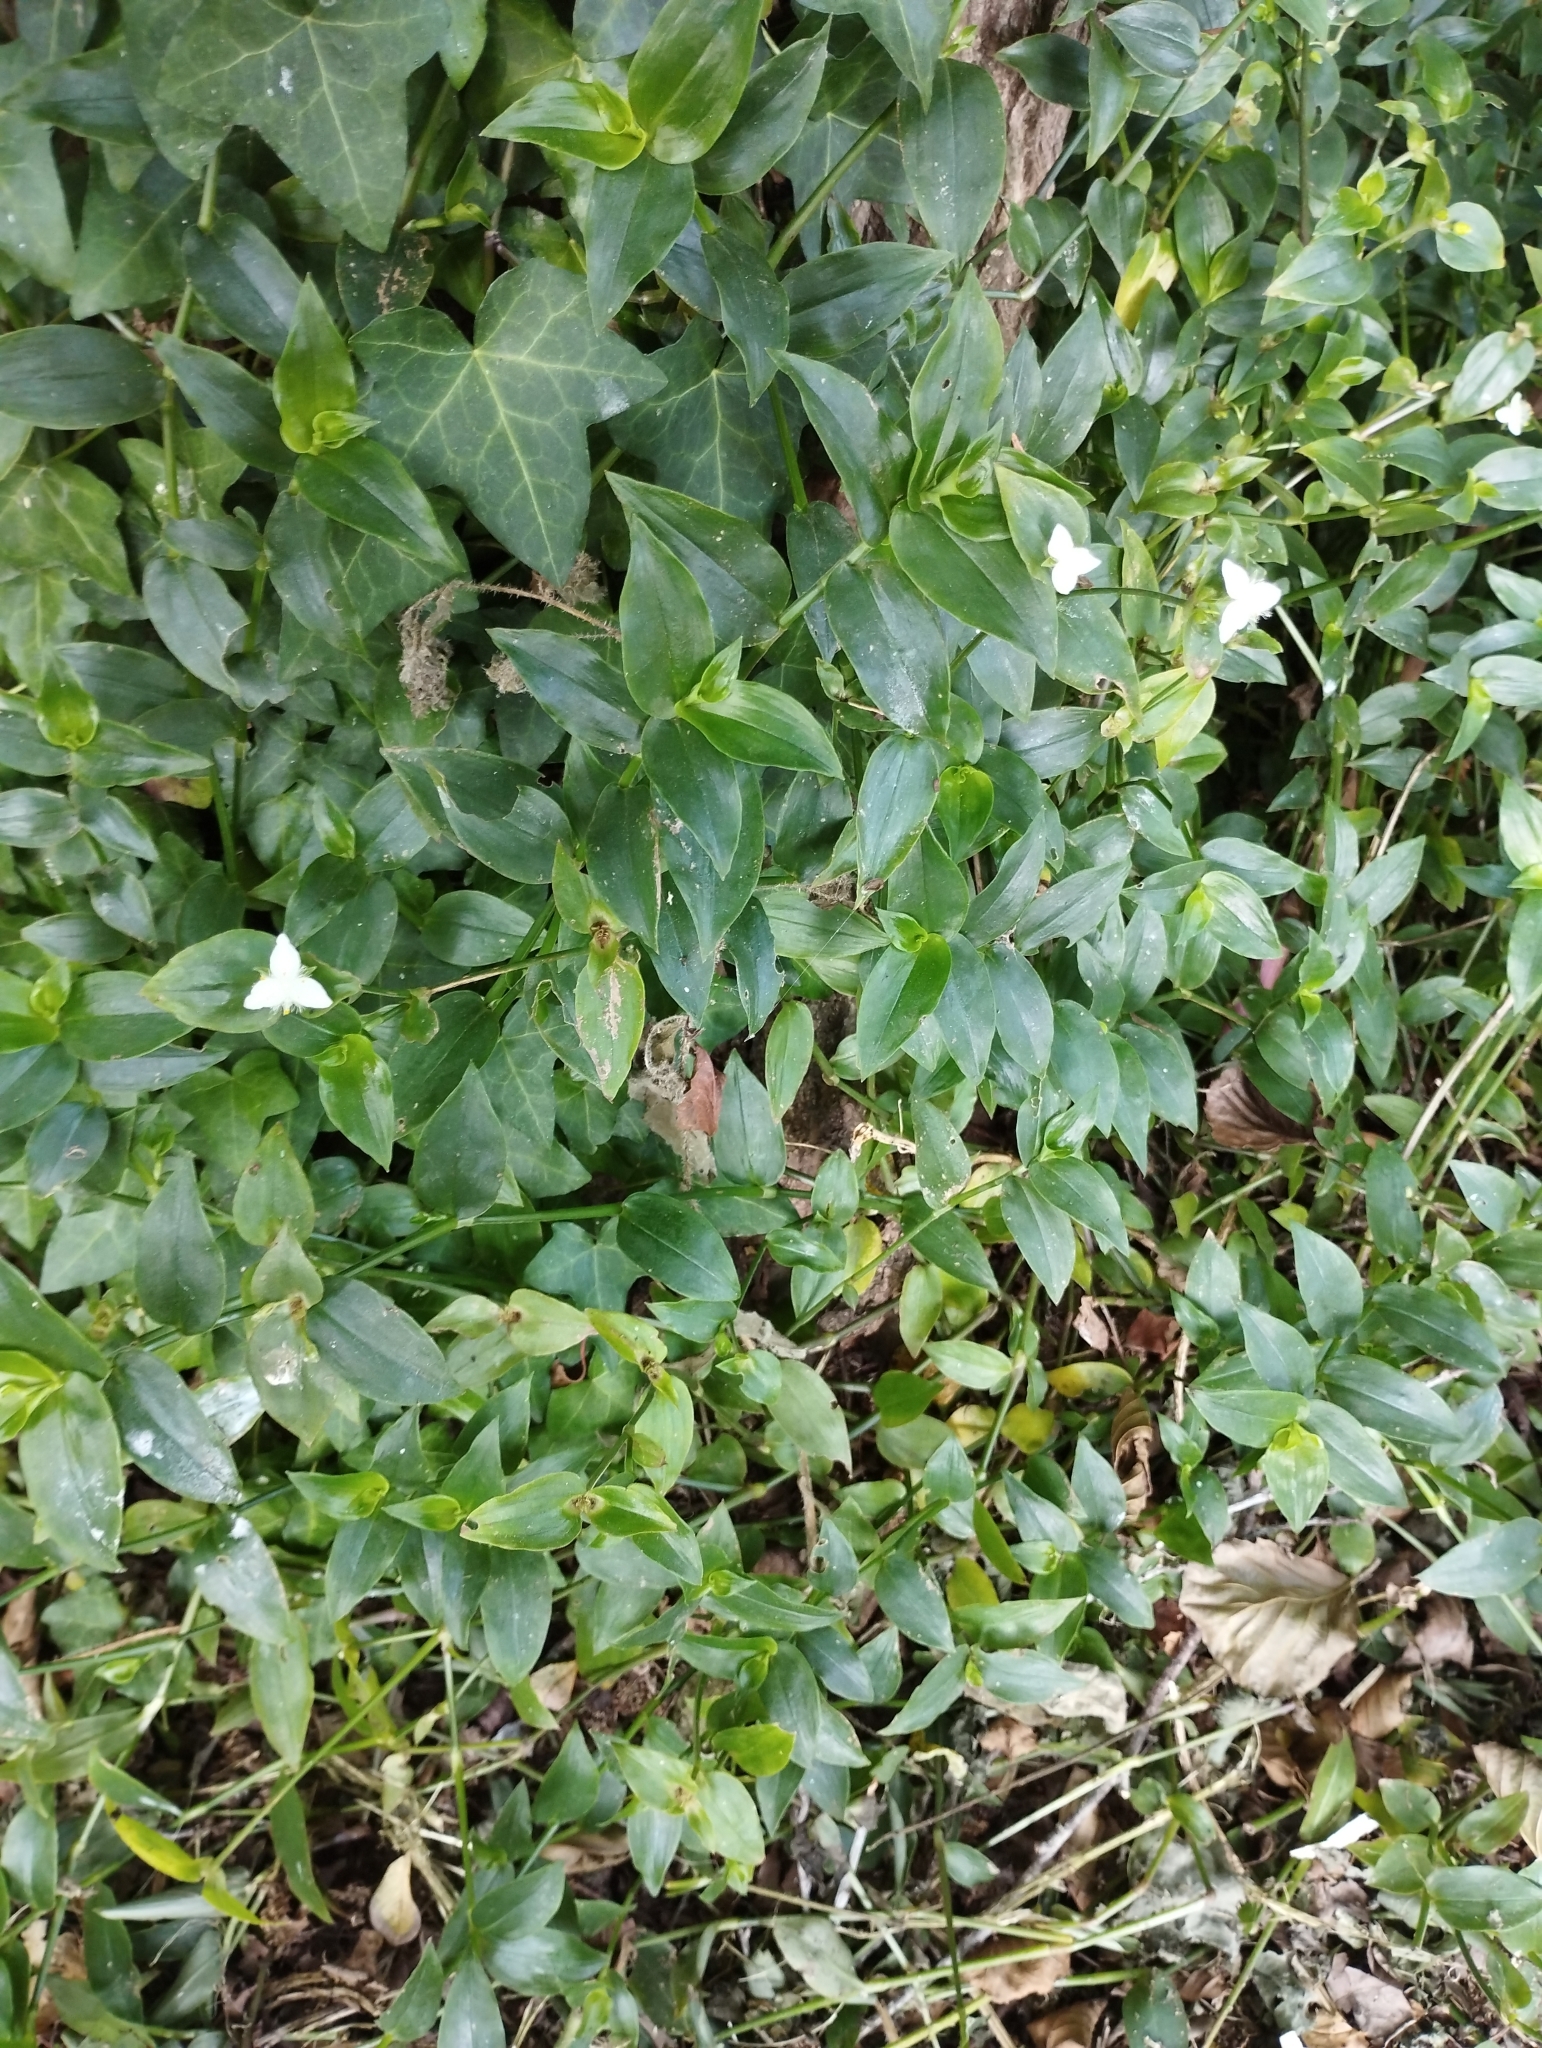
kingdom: Plantae
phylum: Tracheophyta
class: Liliopsida
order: Commelinales
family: Commelinaceae
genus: Tradescantia
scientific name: Tradescantia fluminensis
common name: Wandering-jew
